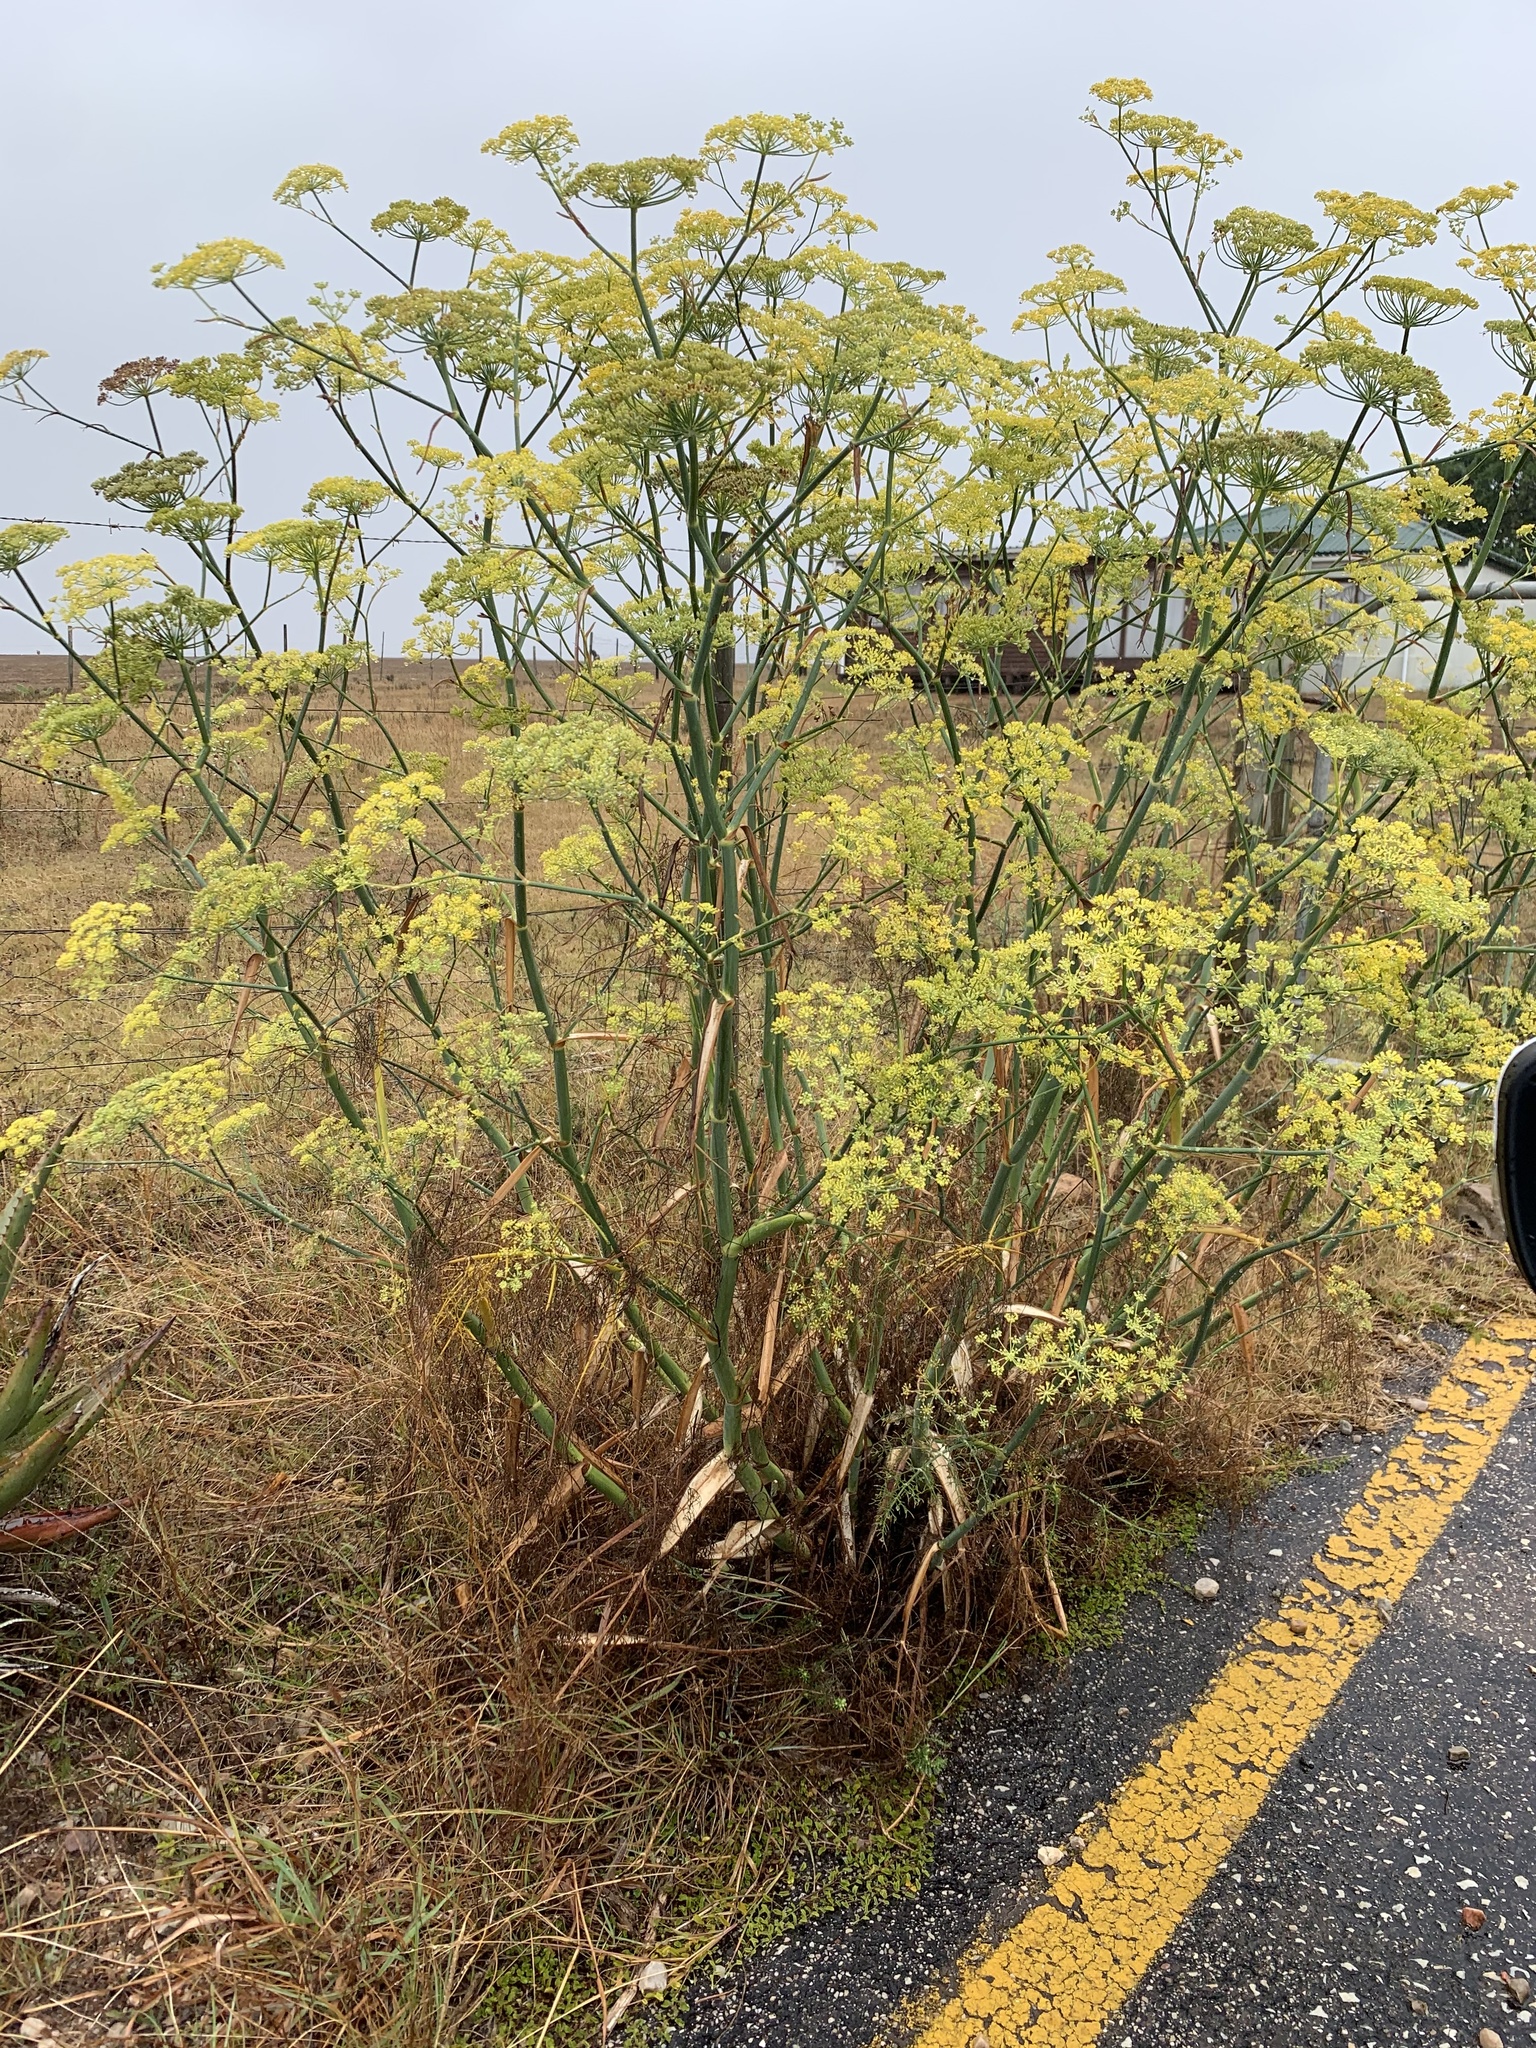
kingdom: Plantae
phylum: Tracheophyta
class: Magnoliopsida
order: Apiales
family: Apiaceae
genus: Foeniculum
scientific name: Foeniculum vulgare
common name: Fennel
